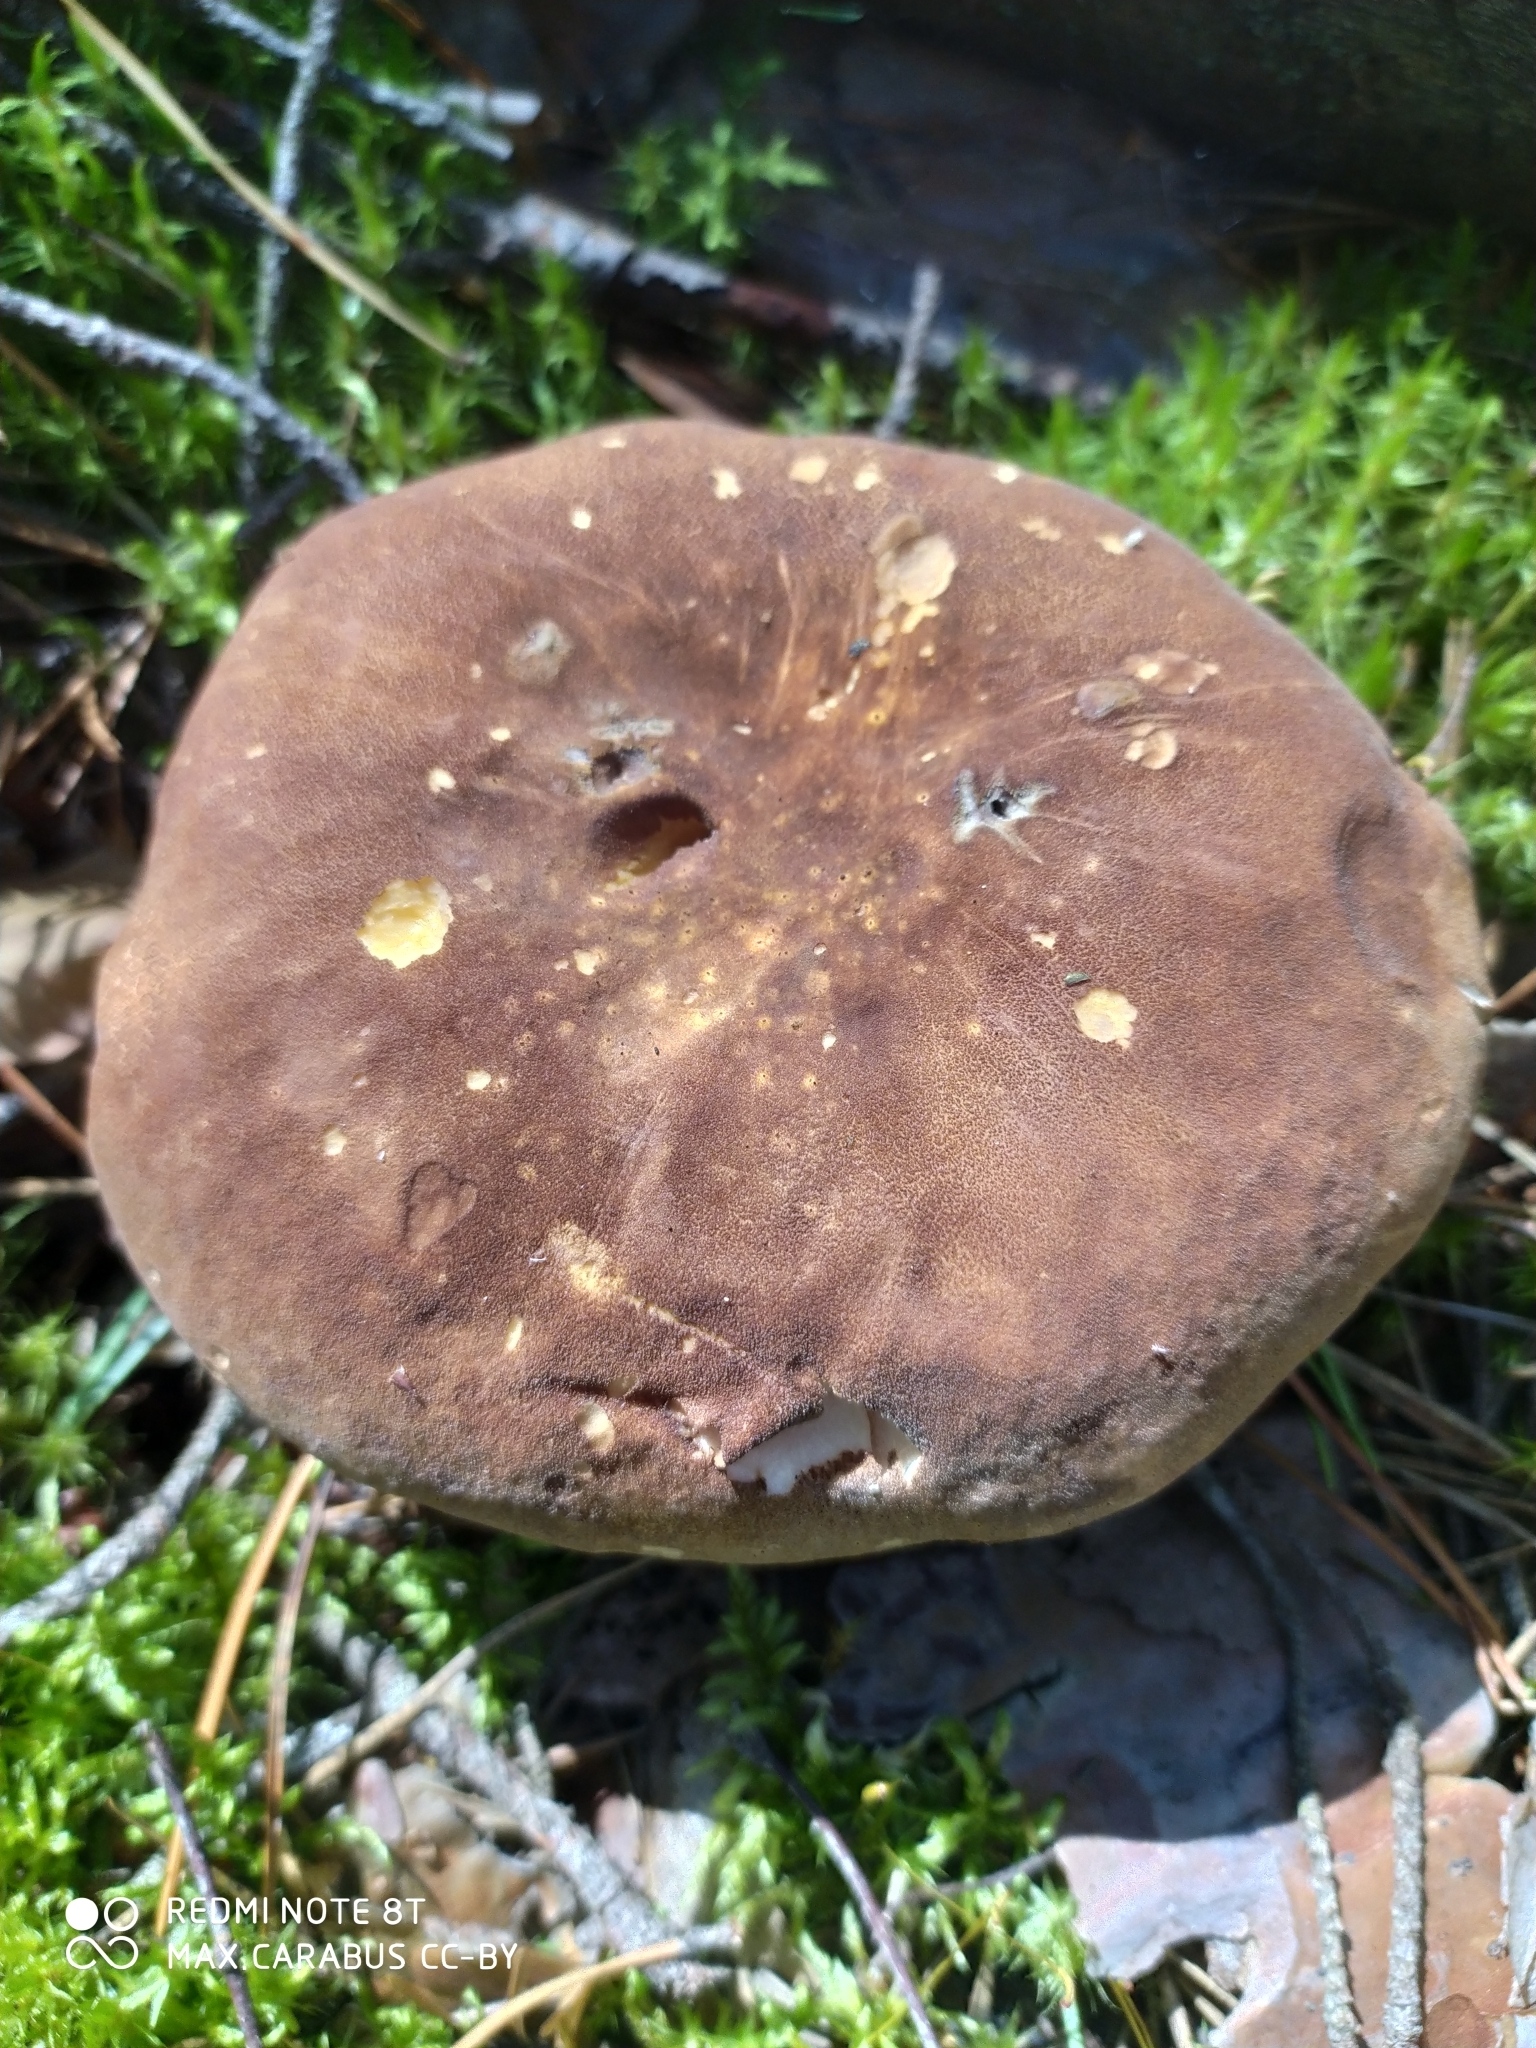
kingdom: Fungi
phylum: Basidiomycota
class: Agaricomycetes
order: Boletales
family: Tapinellaceae
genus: Tapinella
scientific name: Tapinella atrotomentosa
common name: Velvet rollrim
